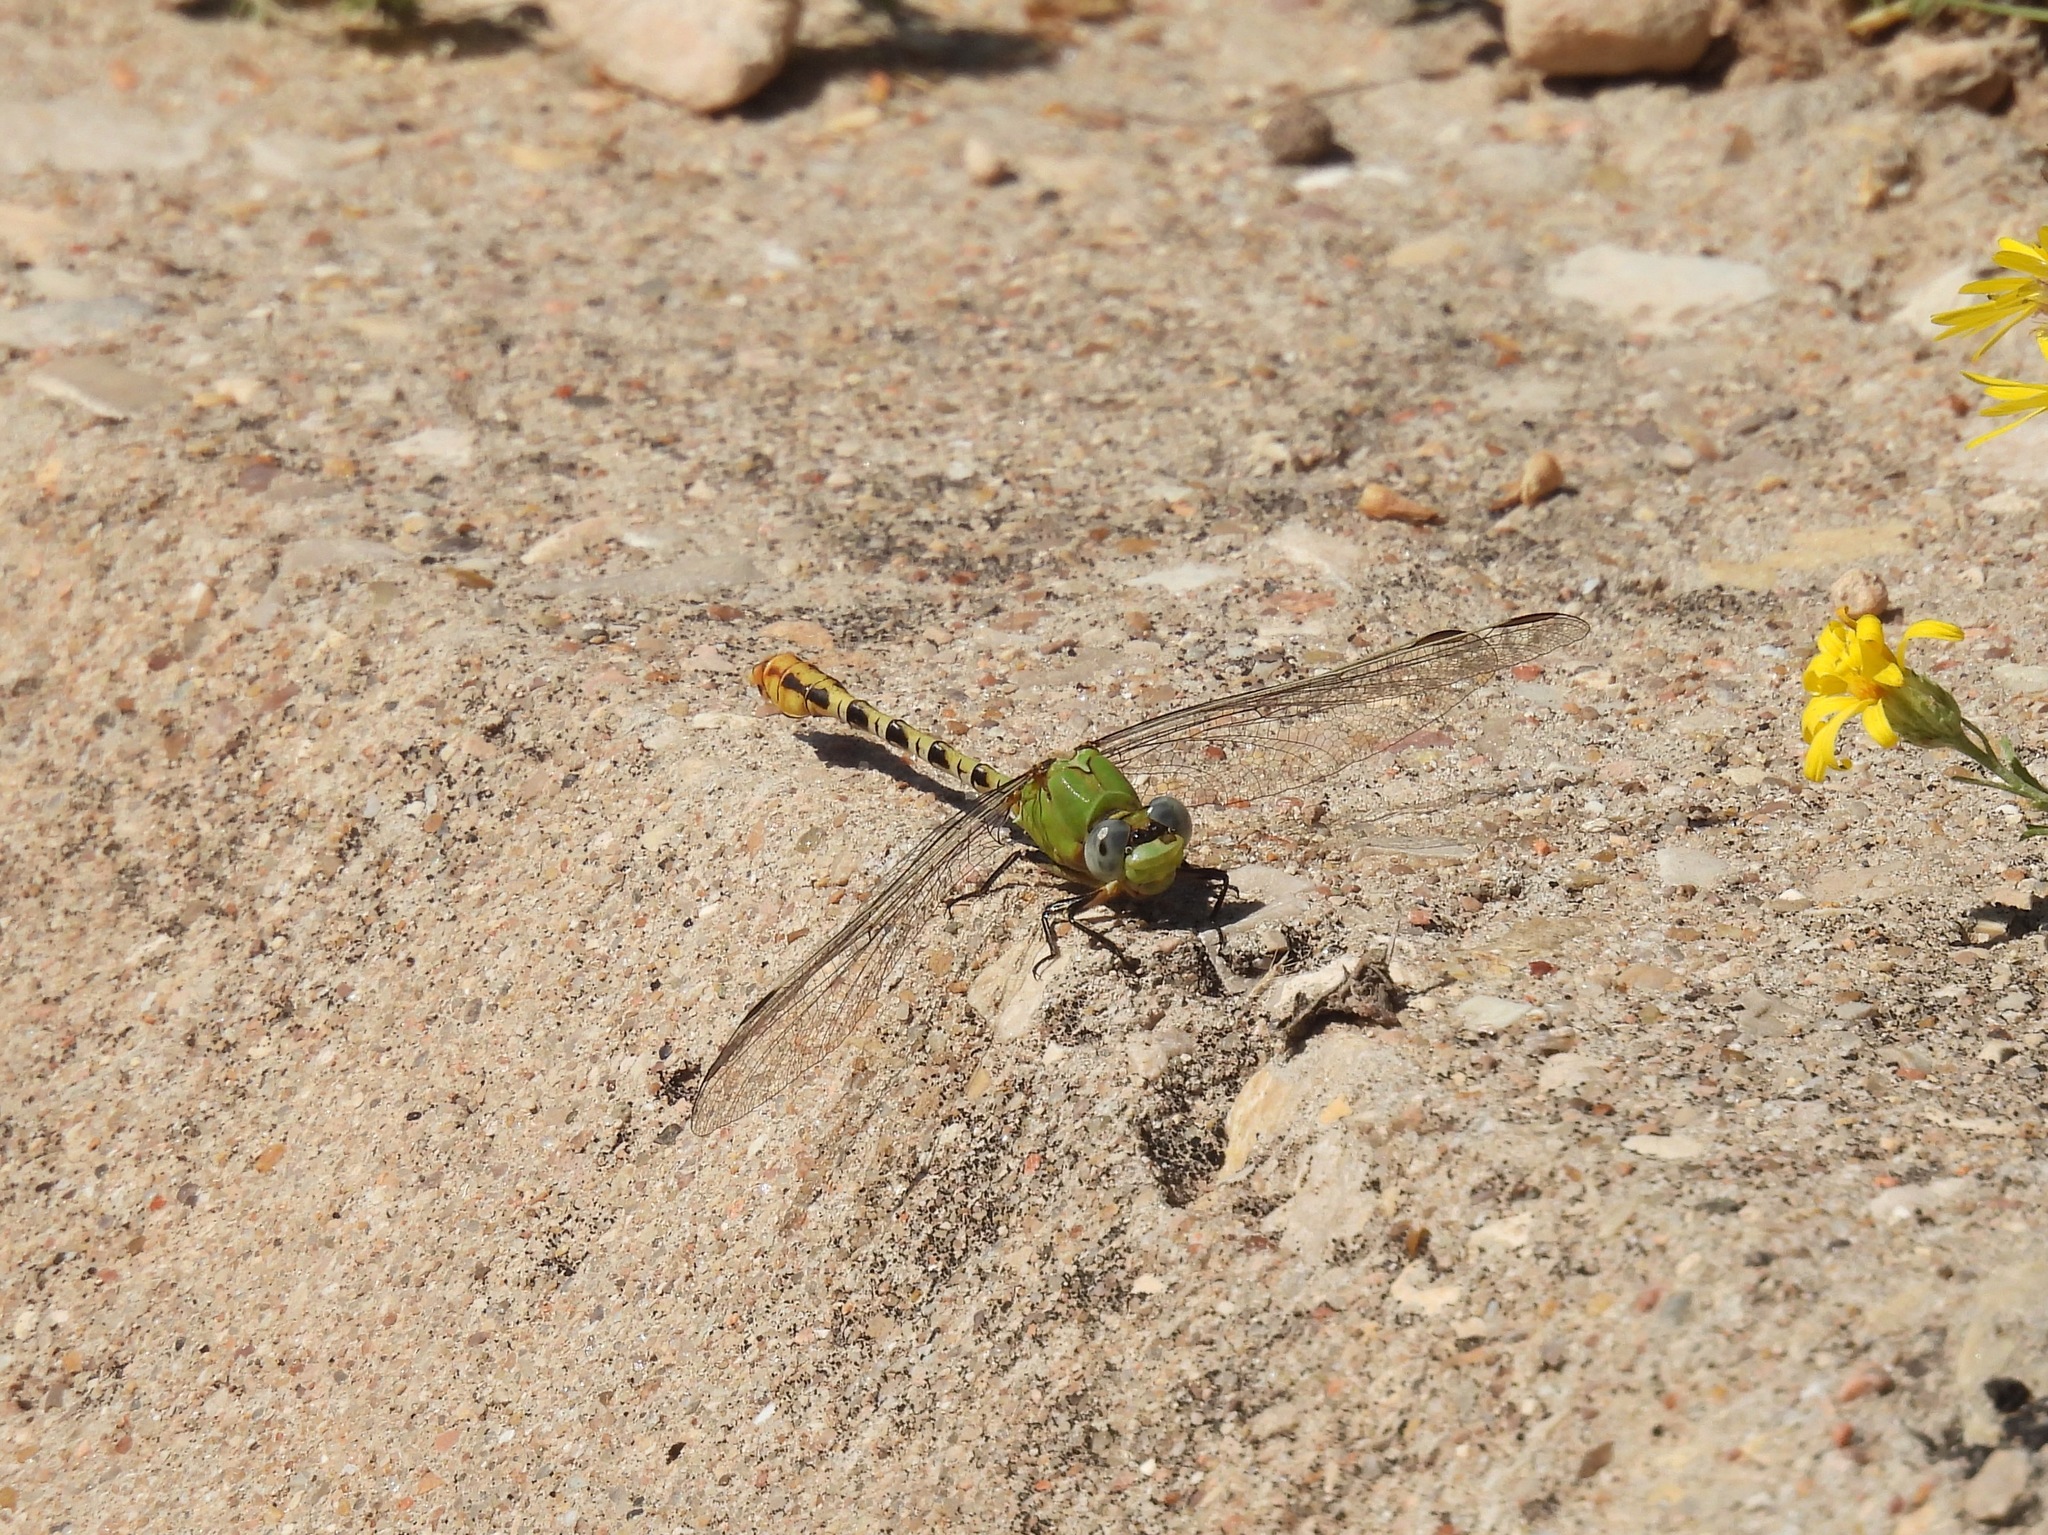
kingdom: Animalia
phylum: Arthropoda
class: Insecta
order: Odonata
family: Gomphidae
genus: Erpetogomphus
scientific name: Erpetogomphus crotalinus
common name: Yellow-legged ringtail
